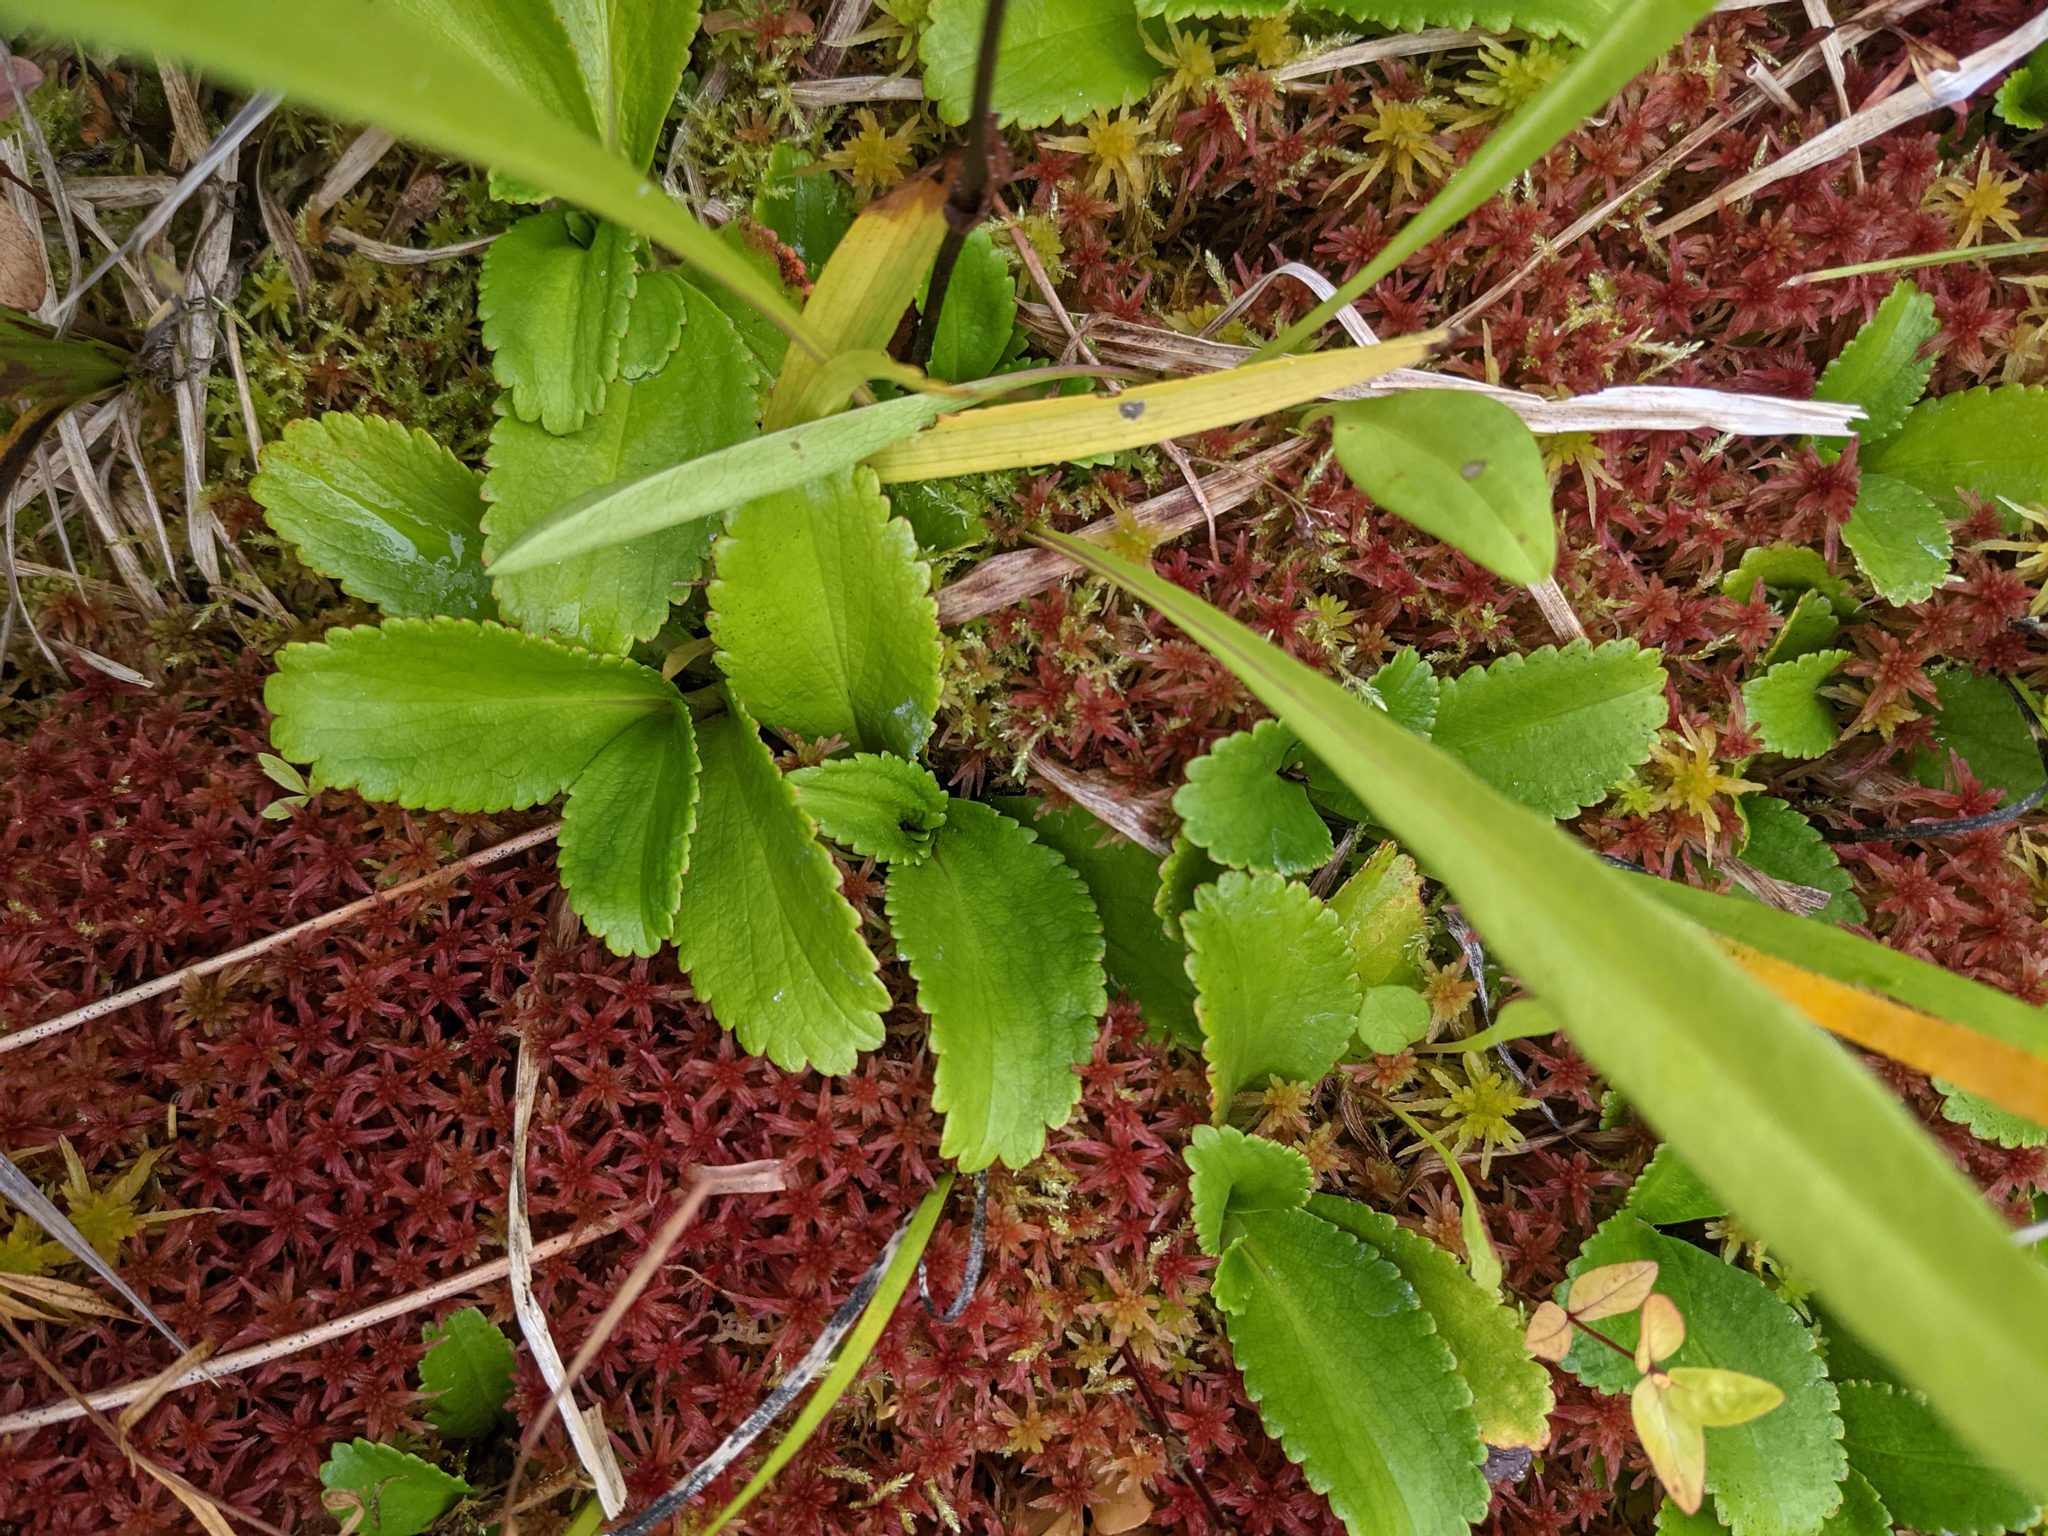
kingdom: Plantae
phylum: Tracheophyta
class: Magnoliopsida
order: Saxifragales
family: Saxifragaceae
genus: Leptarrhena
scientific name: Leptarrhena pyrolifolia
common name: Leatherleaf-saxifrage
